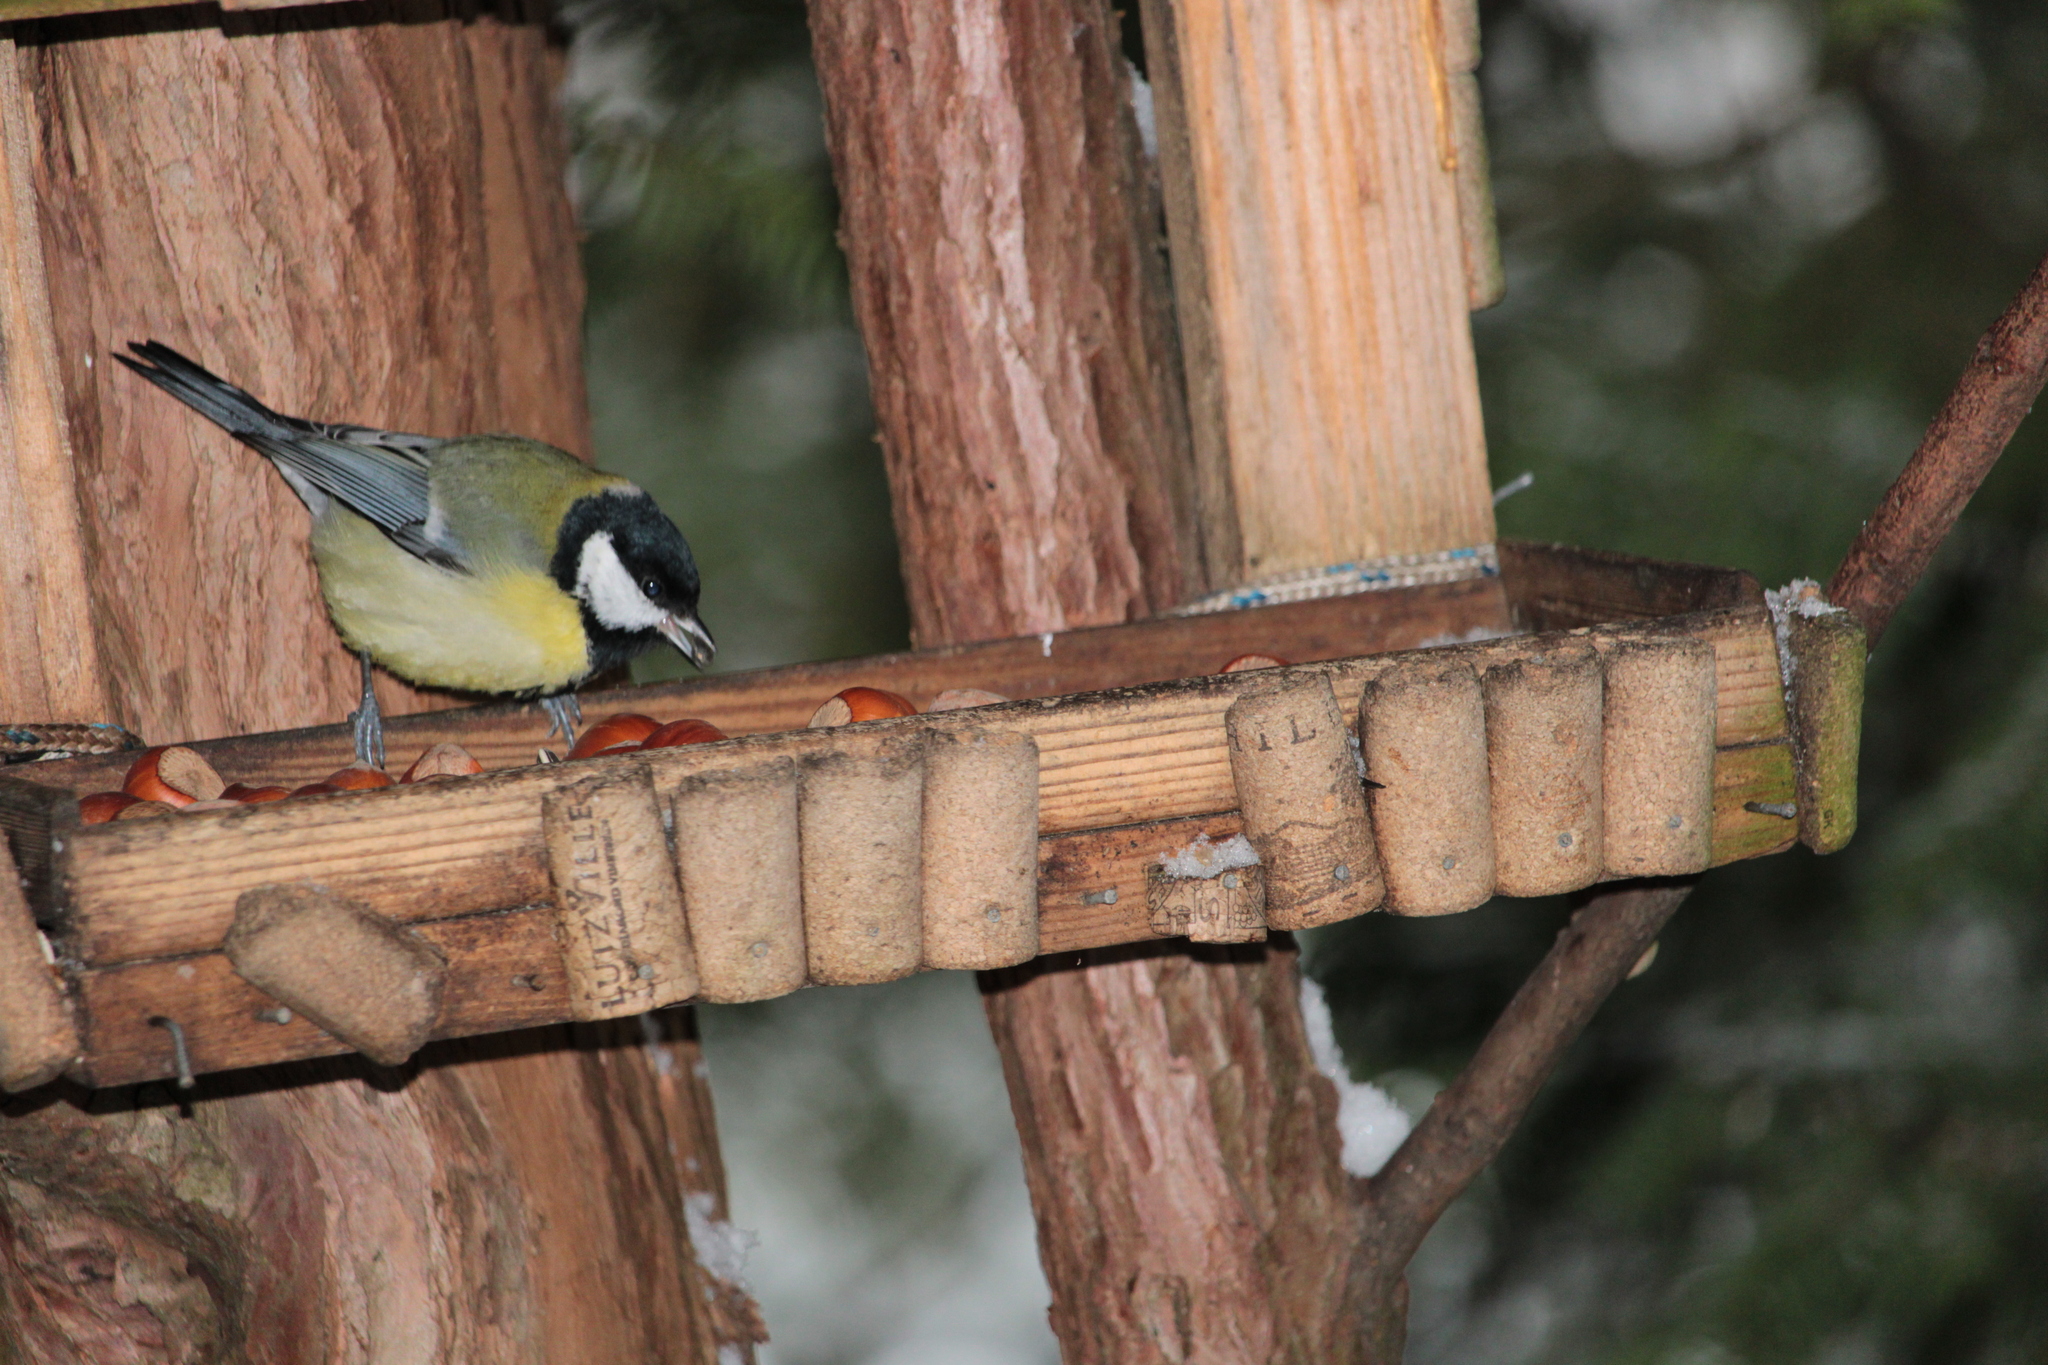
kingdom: Animalia
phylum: Chordata
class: Aves
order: Passeriformes
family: Paridae
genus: Parus
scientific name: Parus major
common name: Great tit
